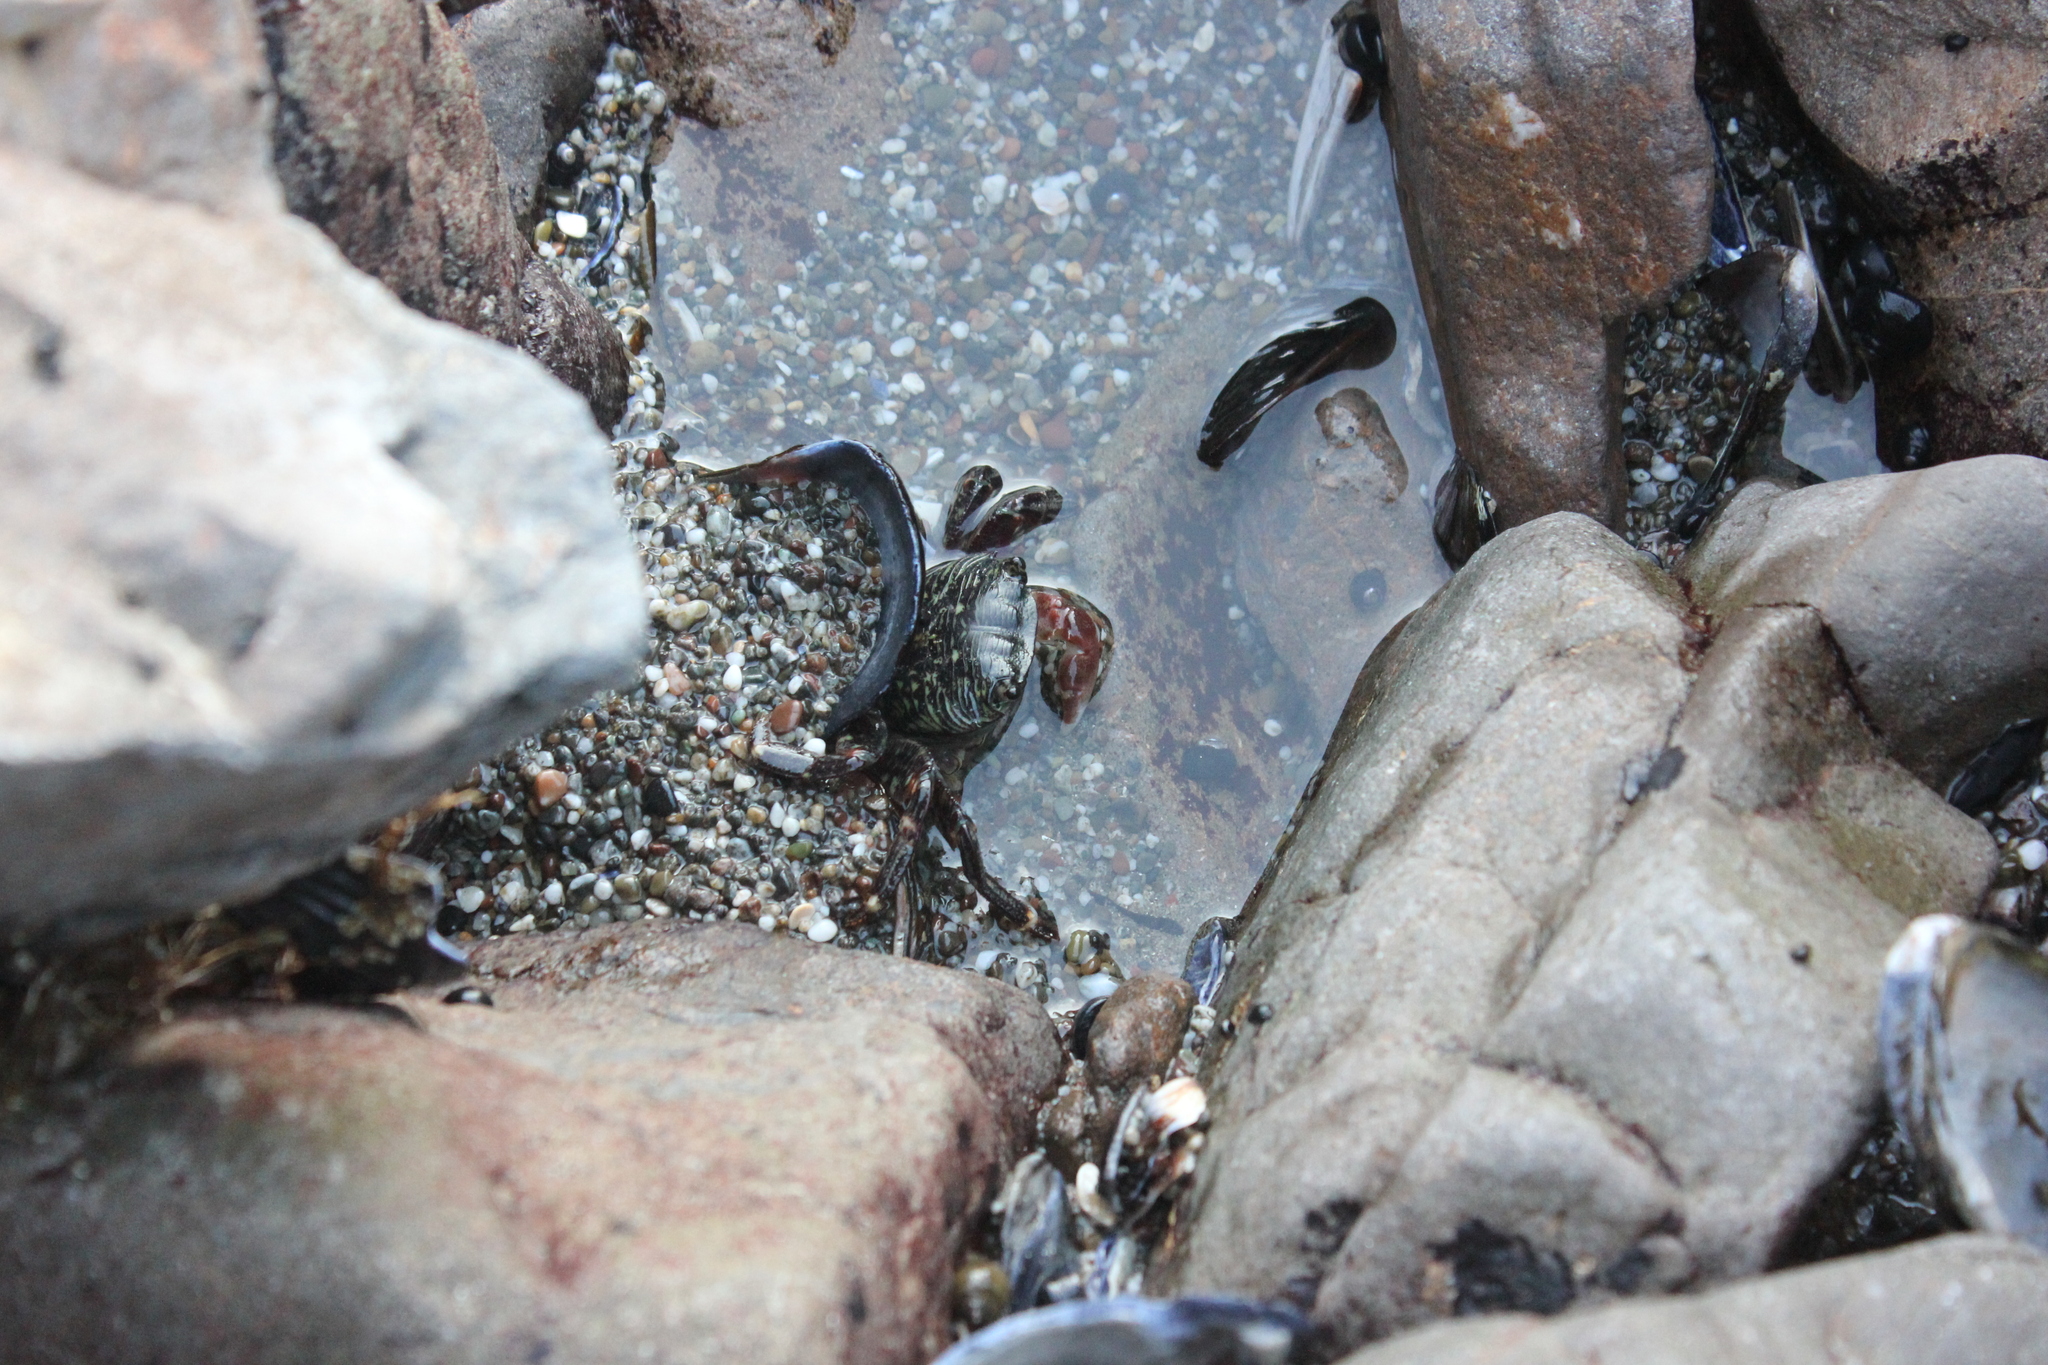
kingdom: Animalia
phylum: Arthropoda
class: Malacostraca
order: Decapoda
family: Grapsidae
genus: Pachygrapsus
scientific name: Pachygrapsus crassipes
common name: Striped shore crab
